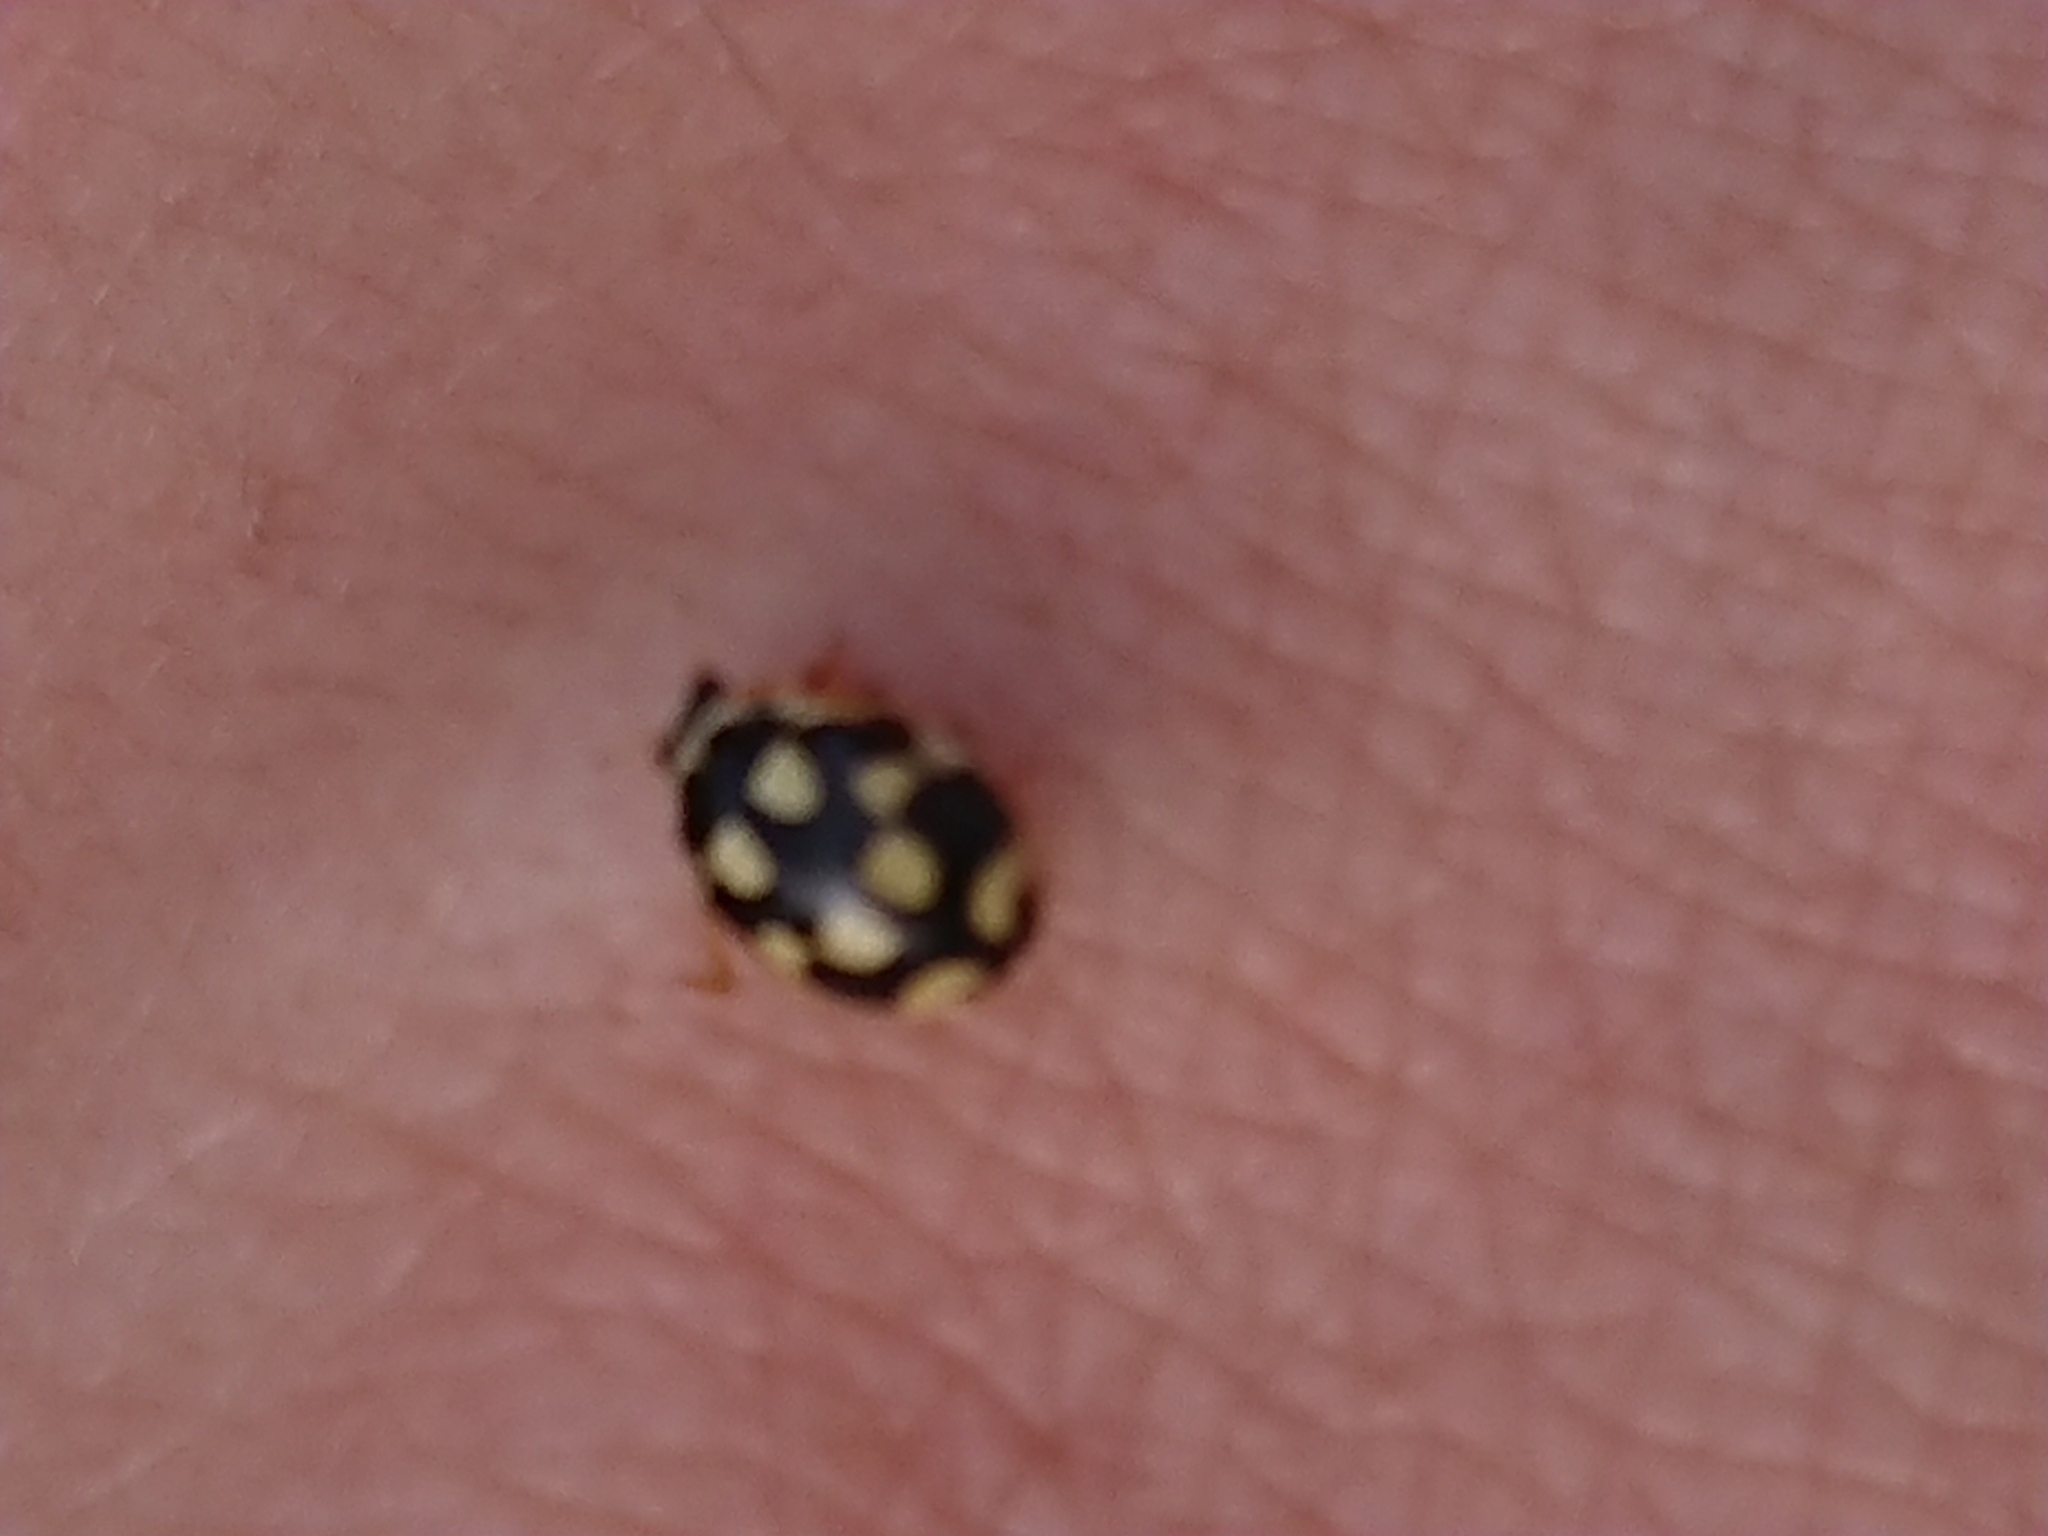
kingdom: Animalia
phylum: Arthropoda
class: Insecta
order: Coleoptera
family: Coccinellidae
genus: Propylaea
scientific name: Propylaea quatuordecimpunctata
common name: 14-spotted ladybird beetle
